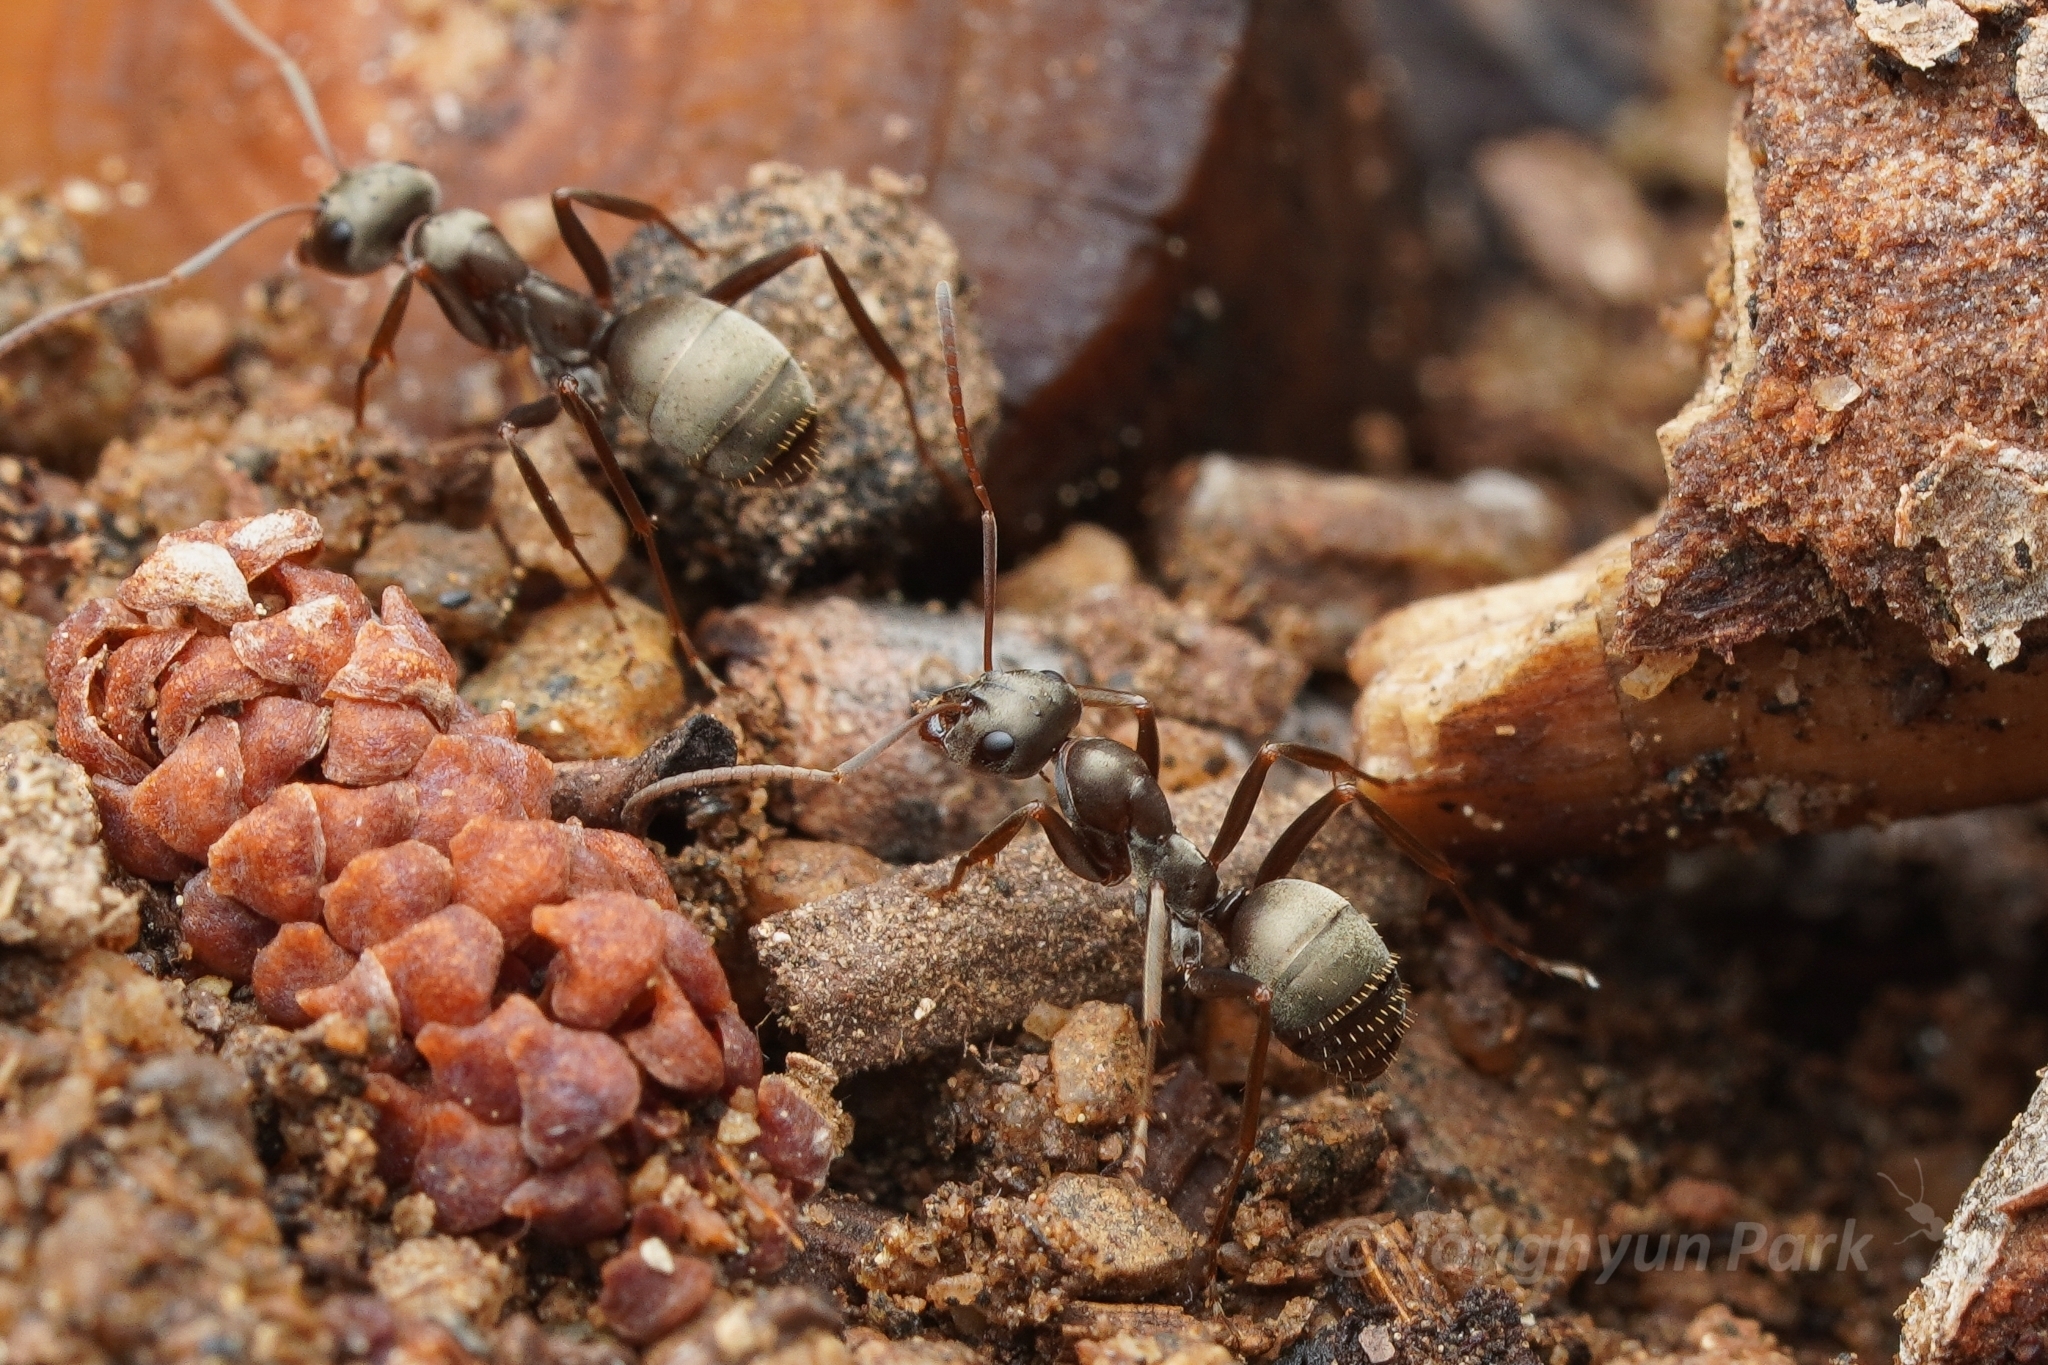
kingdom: Animalia
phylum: Arthropoda
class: Insecta
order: Hymenoptera
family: Formicidae
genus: Formica
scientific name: Formica sibylla
